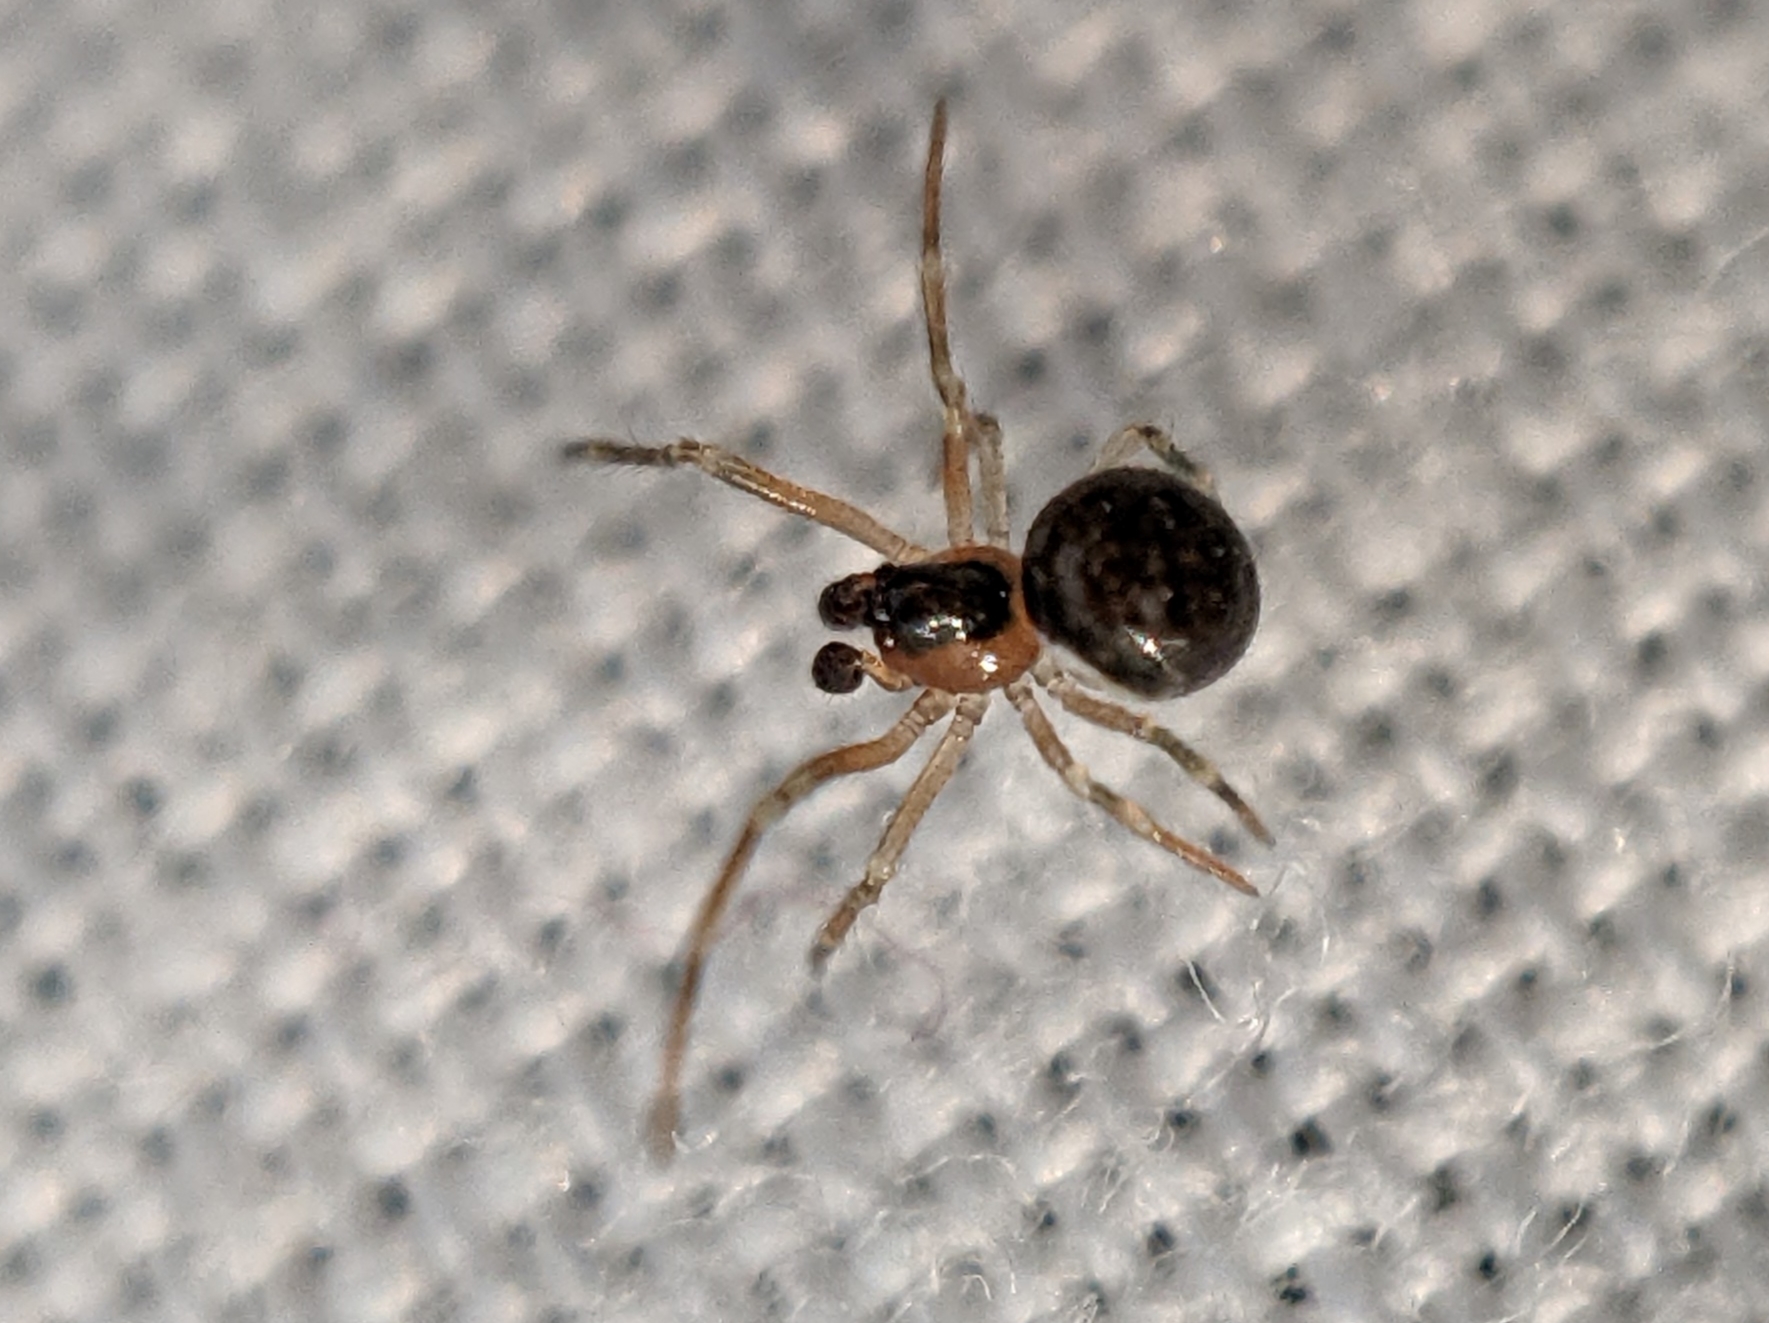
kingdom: Animalia
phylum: Arthropoda
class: Arachnida
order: Araneae
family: Theridiidae
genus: Paidiscura
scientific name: Paidiscura pallens
